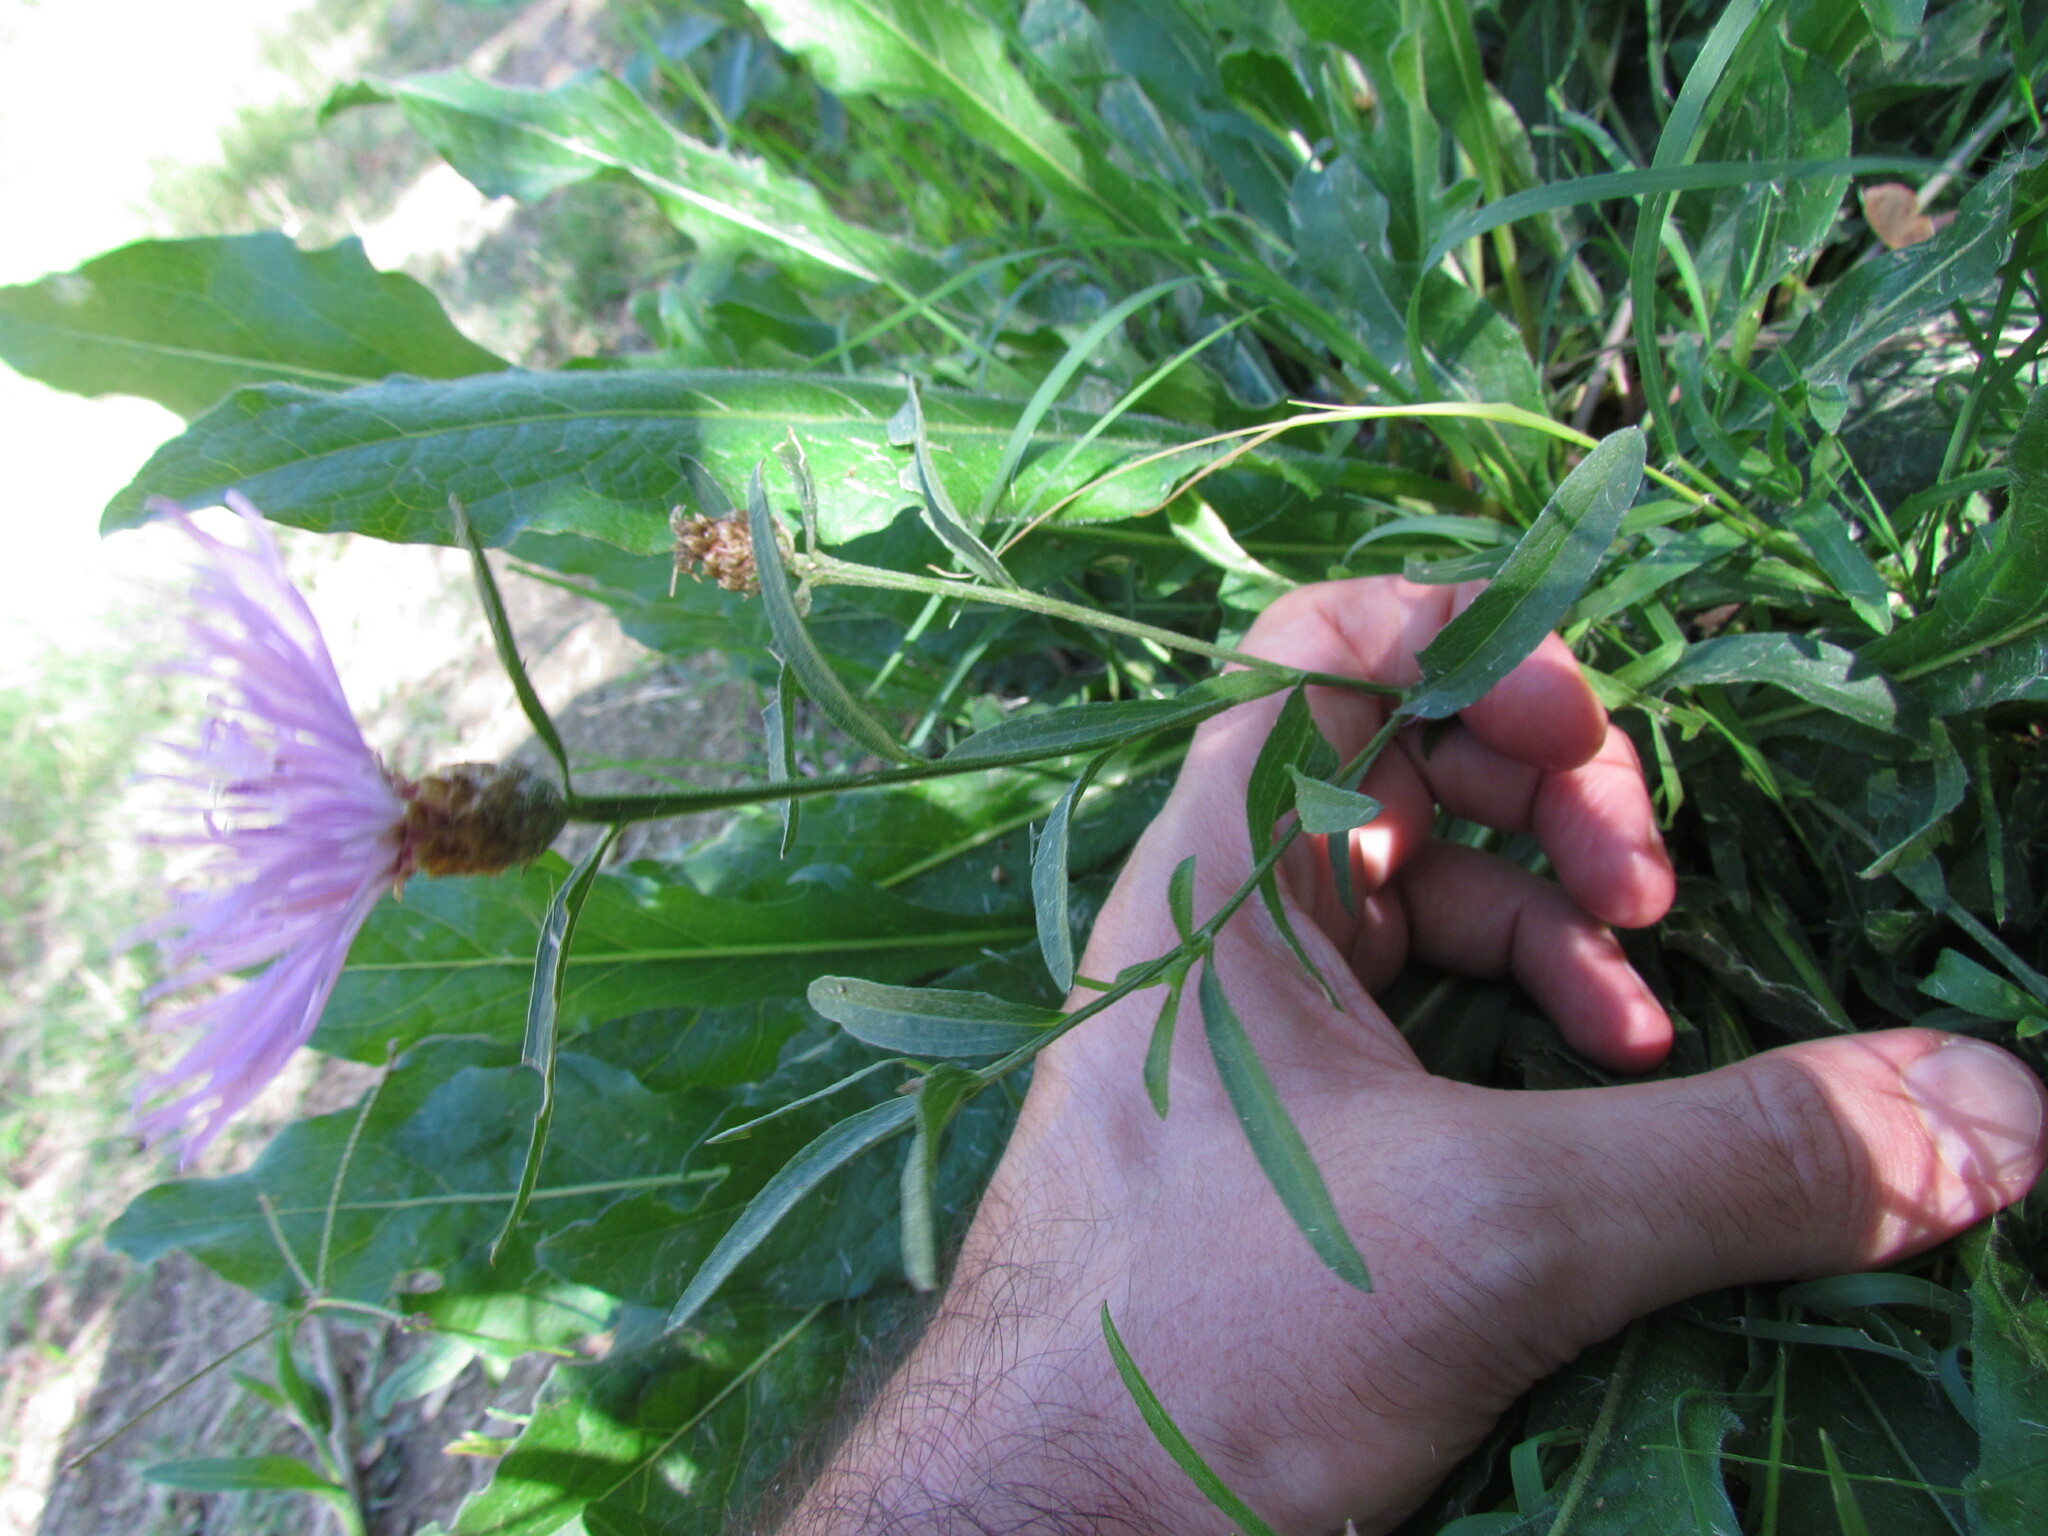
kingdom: Plantae
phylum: Tracheophyta
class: Magnoliopsida
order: Asterales
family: Asteraceae
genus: Centaurea
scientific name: Centaurea jacea
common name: Brown knapweed
